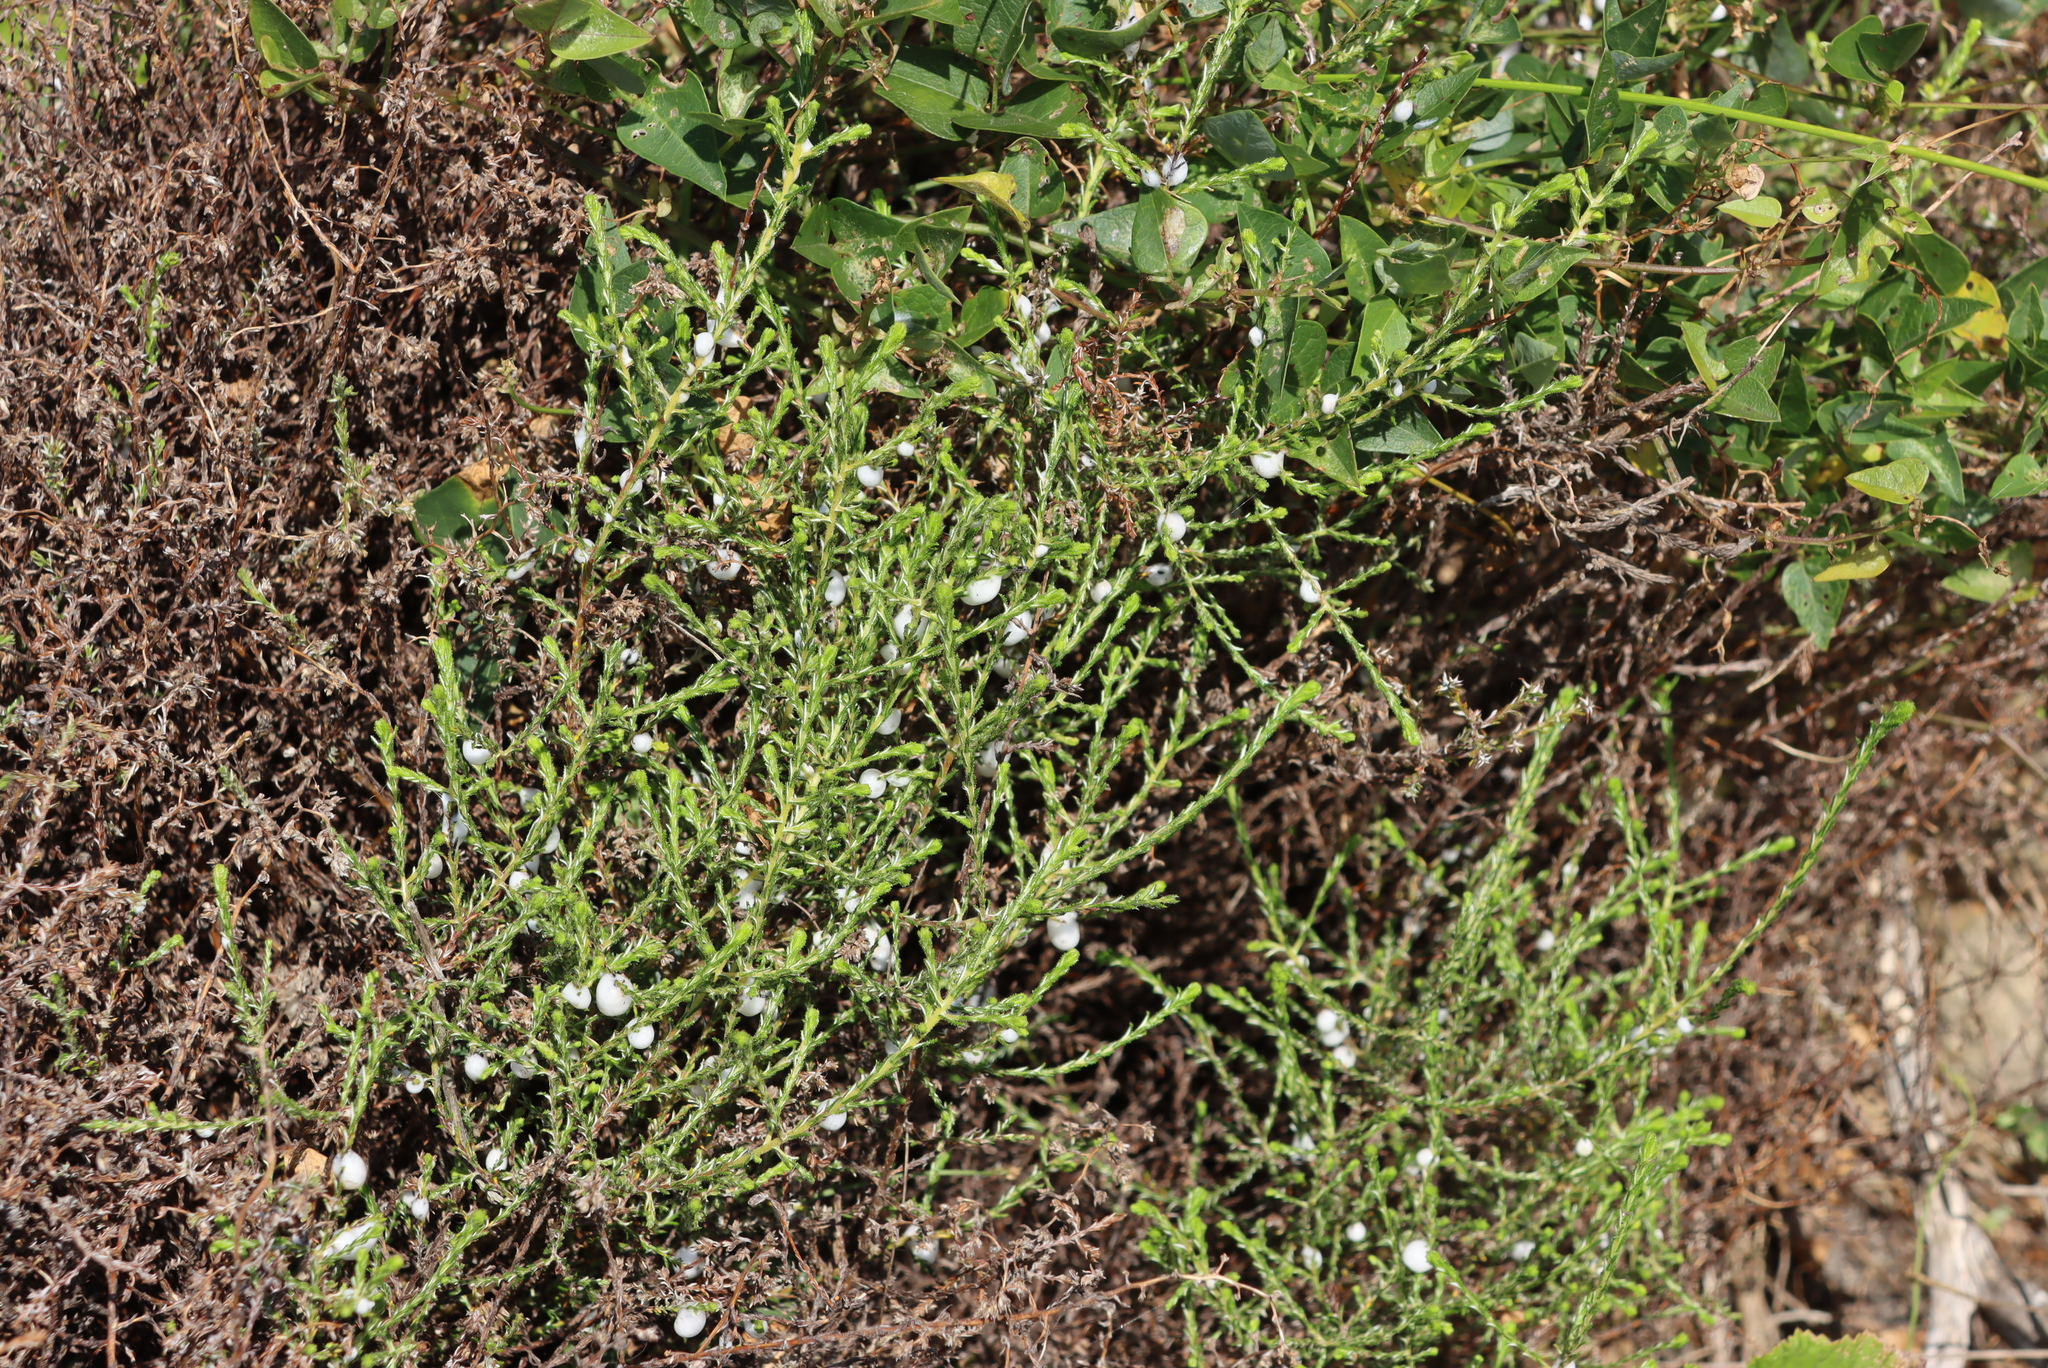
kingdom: Plantae
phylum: Tracheophyta
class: Magnoliopsida
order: Asterales
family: Asteraceae
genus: Myrovernix
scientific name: Myrovernix scaber
